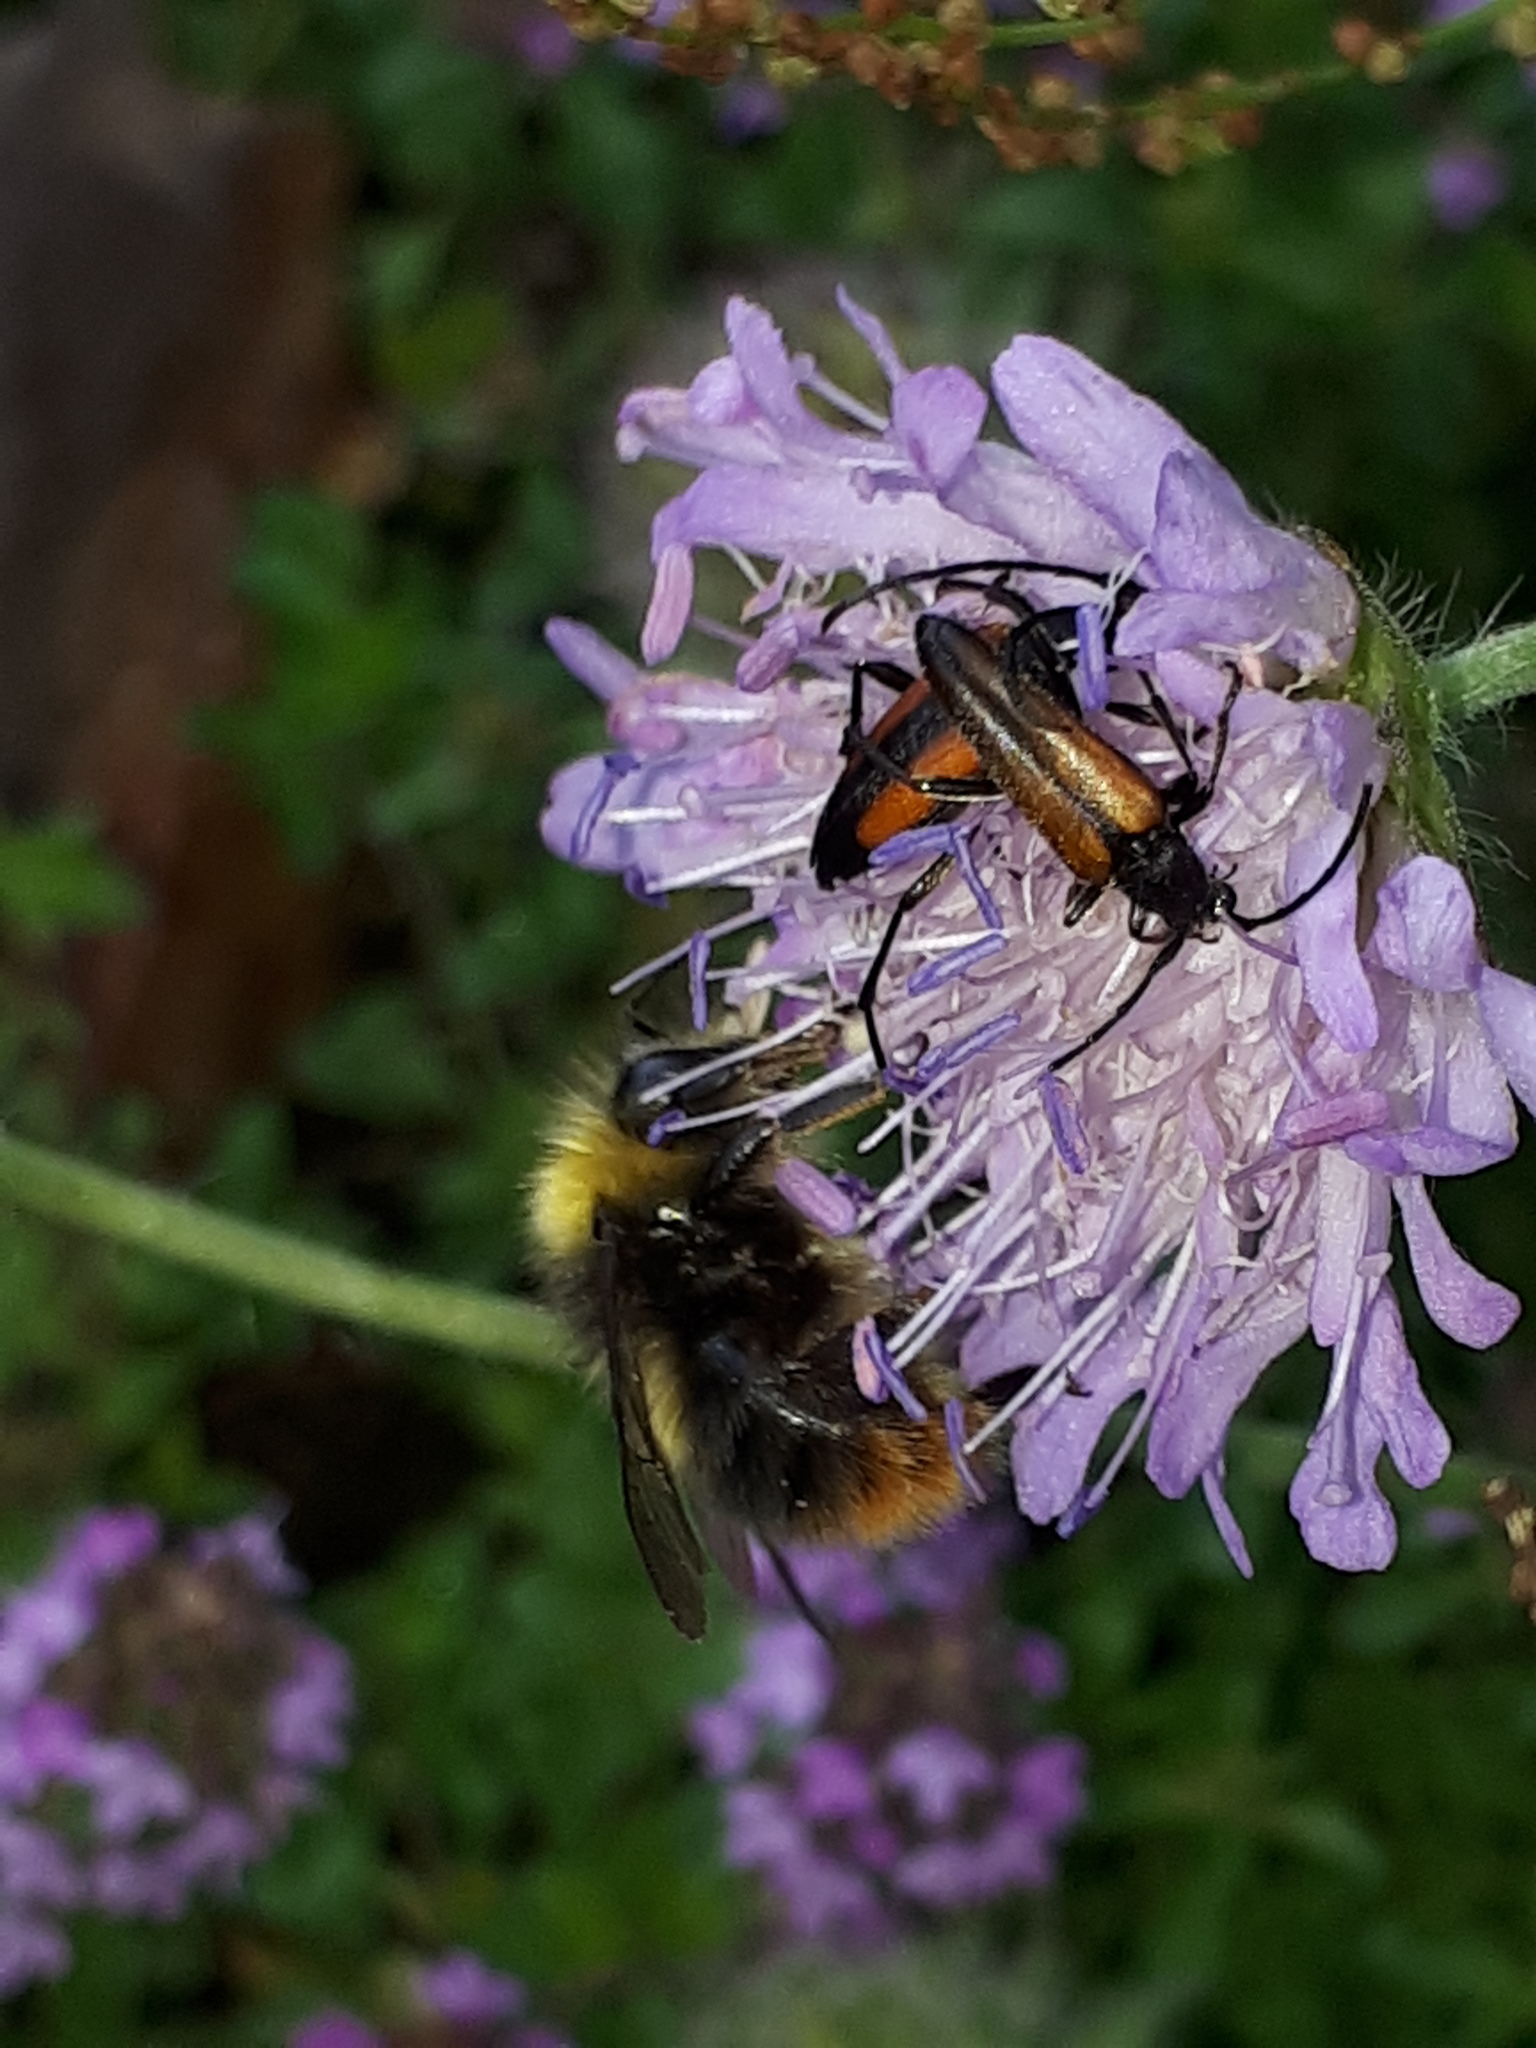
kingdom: Animalia
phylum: Arthropoda
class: Insecta
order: Coleoptera
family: Cerambycidae
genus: Stenurella
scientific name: Stenurella melanura
